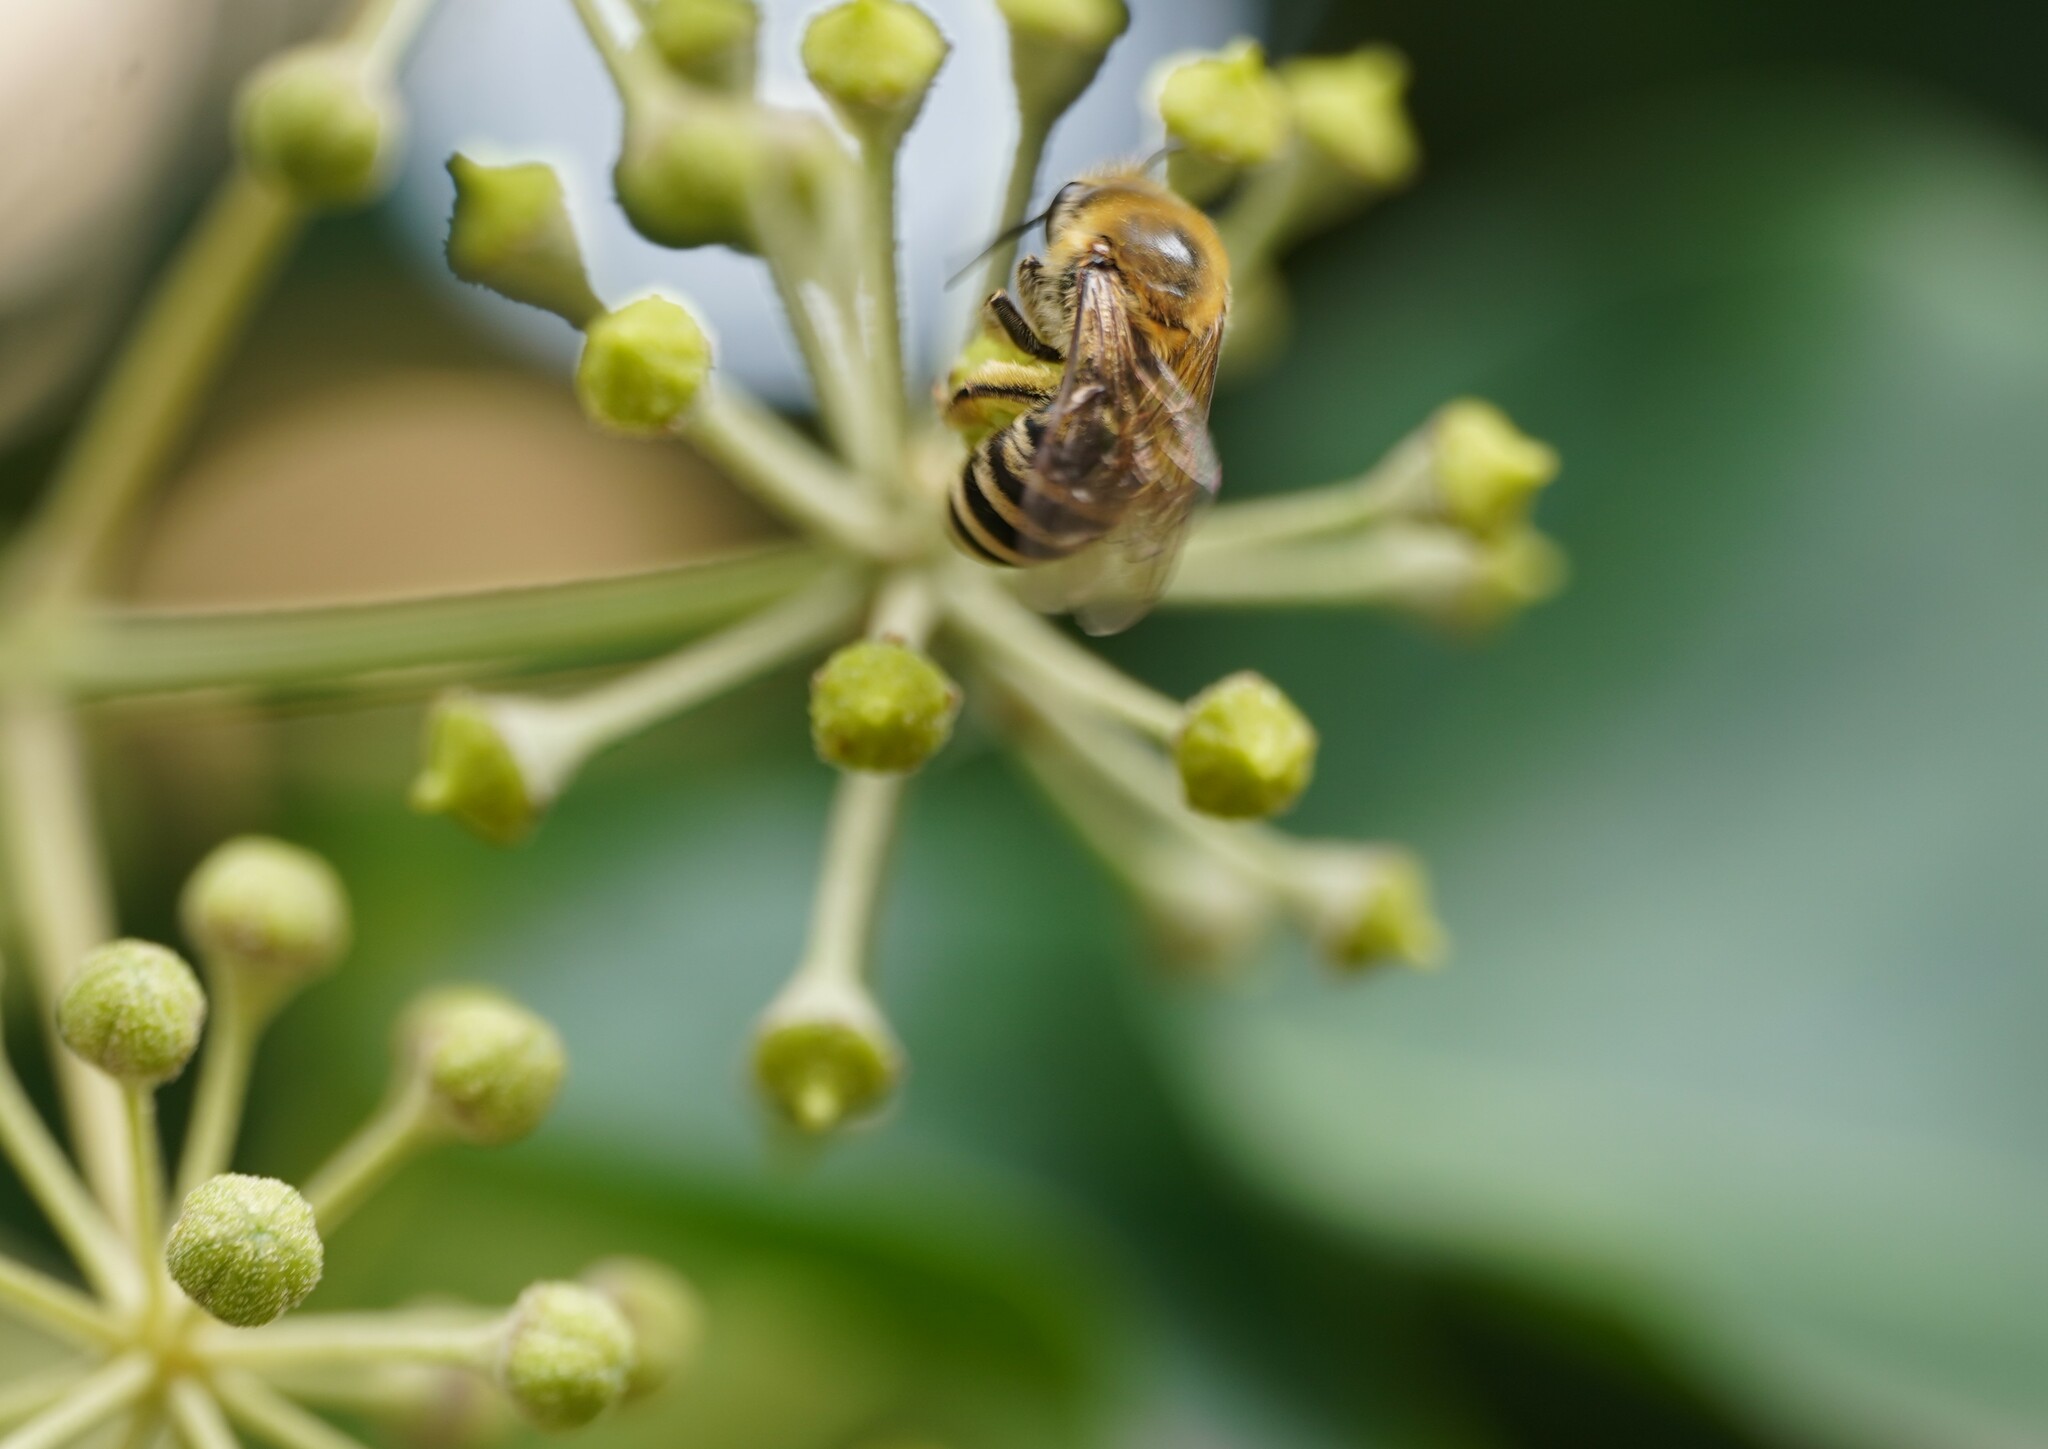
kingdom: Animalia
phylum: Arthropoda
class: Insecta
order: Hymenoptera
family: Colletidae
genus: Colletes
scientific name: Colletes hederae
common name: Ivy bee
